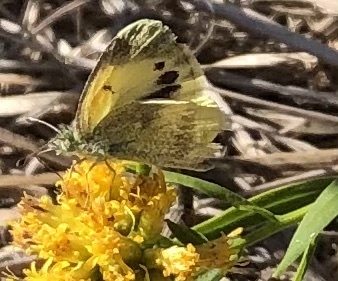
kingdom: Animalia
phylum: Arthropoda
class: Insecta
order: Lepidoptera
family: Pieridae
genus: Nathalis
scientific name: Nathalis iole
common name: Dainty sulphur
